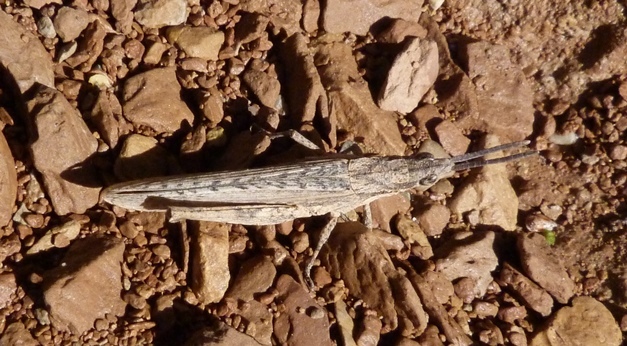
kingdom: Animalia
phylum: Arthropoda
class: Insecta
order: Orthoptera
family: Pyrgomorphidae
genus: Pyrgomorpha
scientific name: Pyrgomorpha conica
